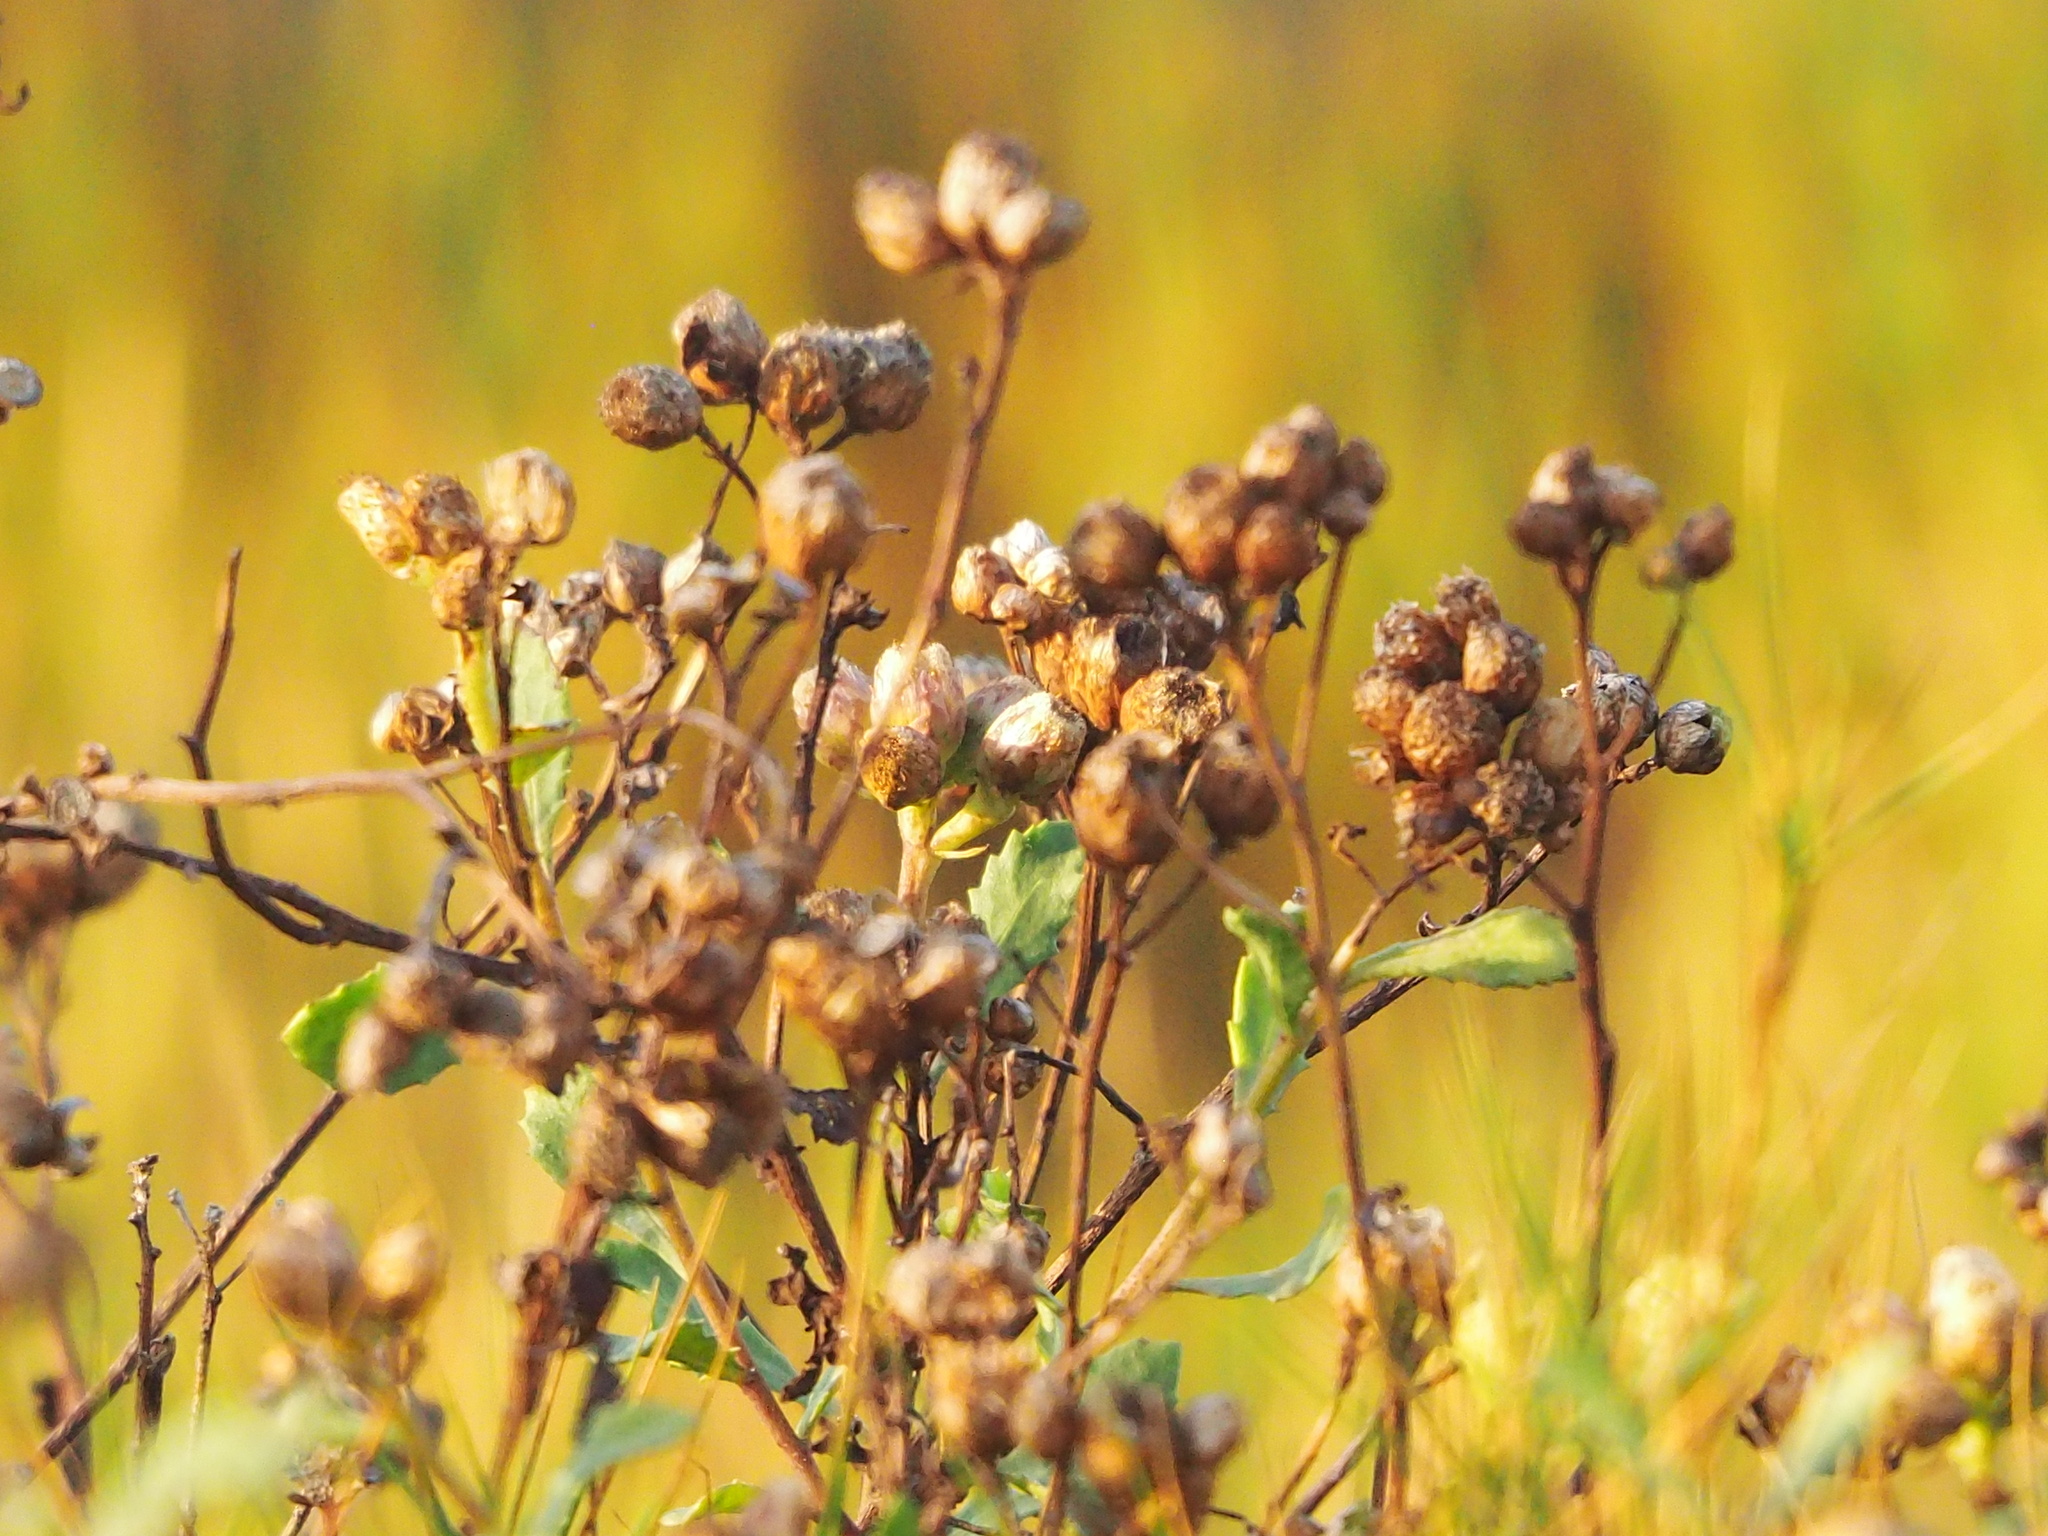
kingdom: Plantae
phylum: Tracheophyta
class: Magnoliopsida
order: Asterales
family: Asteraceae
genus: Pluchea
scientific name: Pluchea pteropoda
